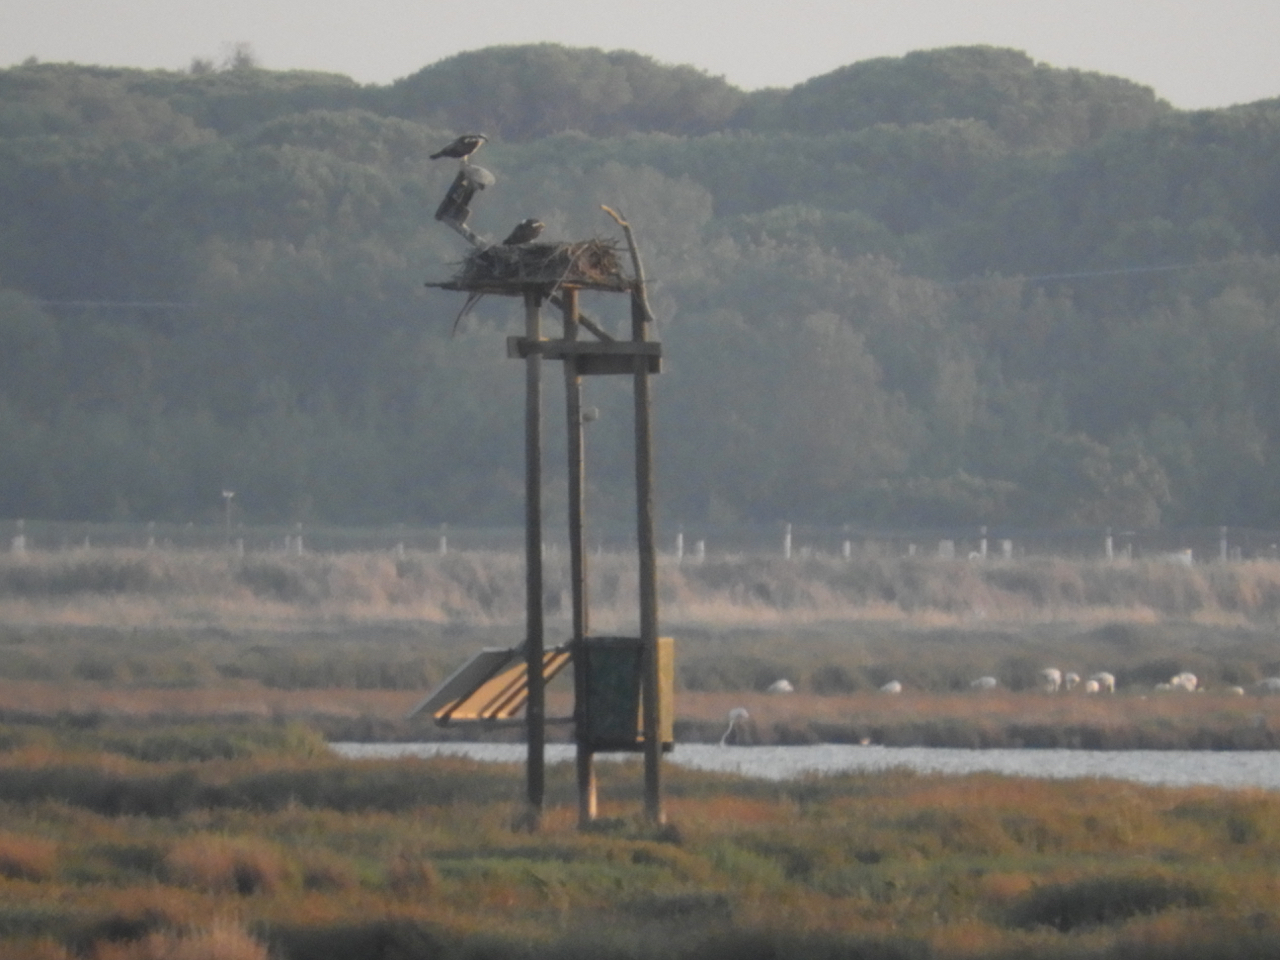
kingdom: Animalia
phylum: Chordata
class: Aves
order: Accipitriformes
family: Pandionidae
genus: Pandion
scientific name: Pandion haliaetus
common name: Osprey
